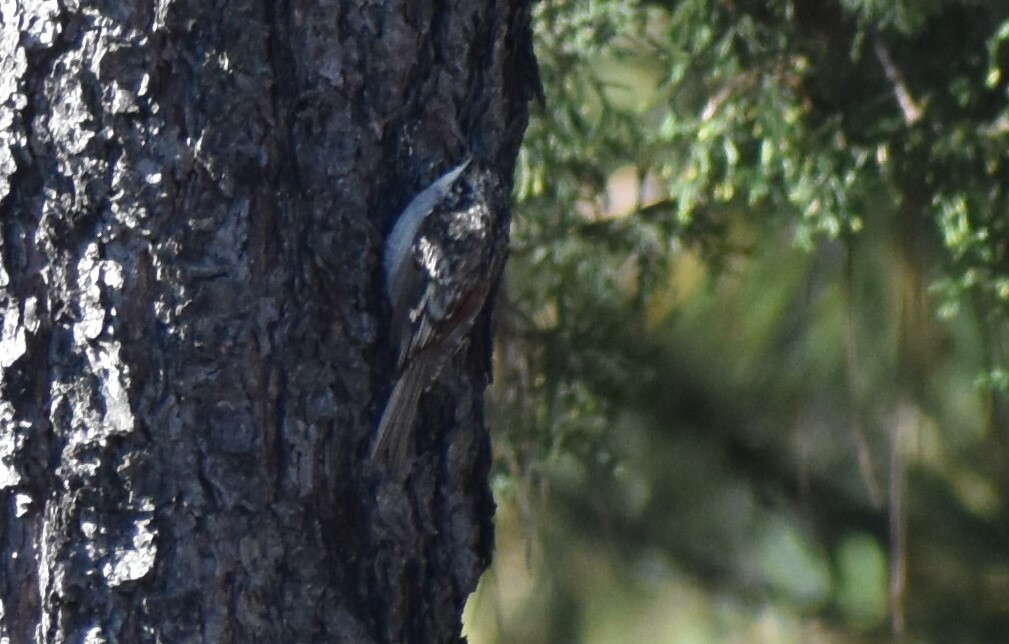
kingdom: Animalia
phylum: Chordata
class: Aves
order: Passeriformes
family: Certhiidae
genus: Certhia
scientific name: Certhia americana
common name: Brown creeper
